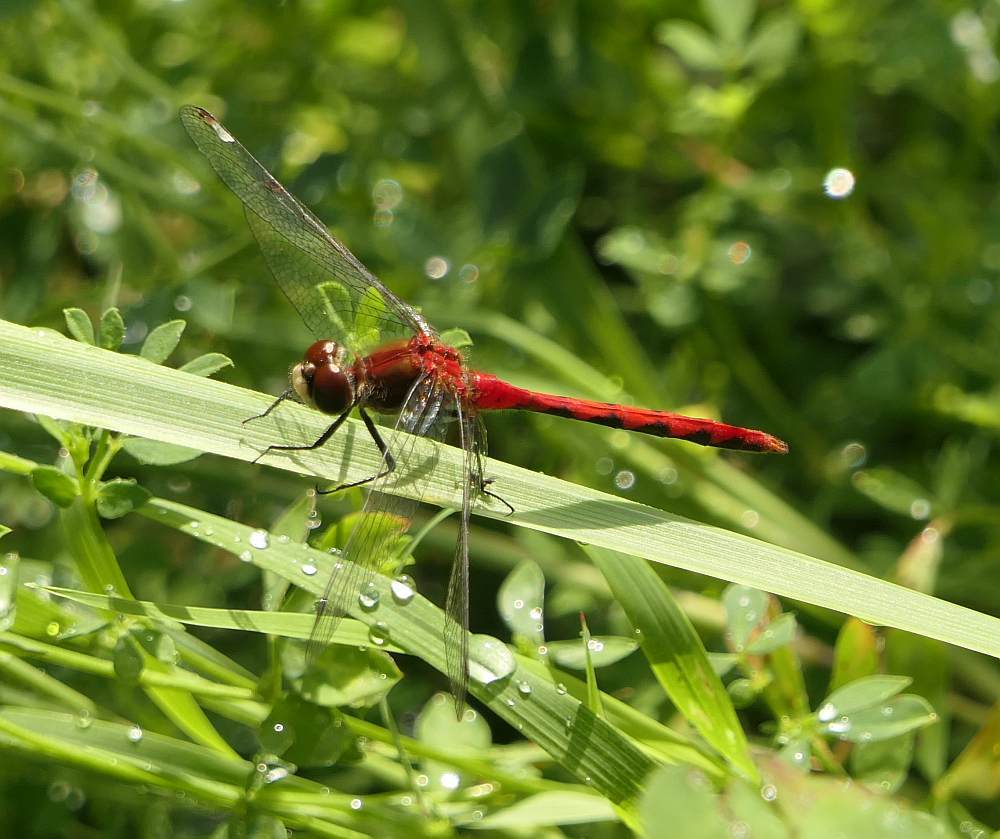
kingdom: Animalia
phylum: Arthropoda
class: Insecta
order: Odonata
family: Libellulidae
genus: Sympetrum
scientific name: Sympetrum obtrusum
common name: White-faced meadowhawk
